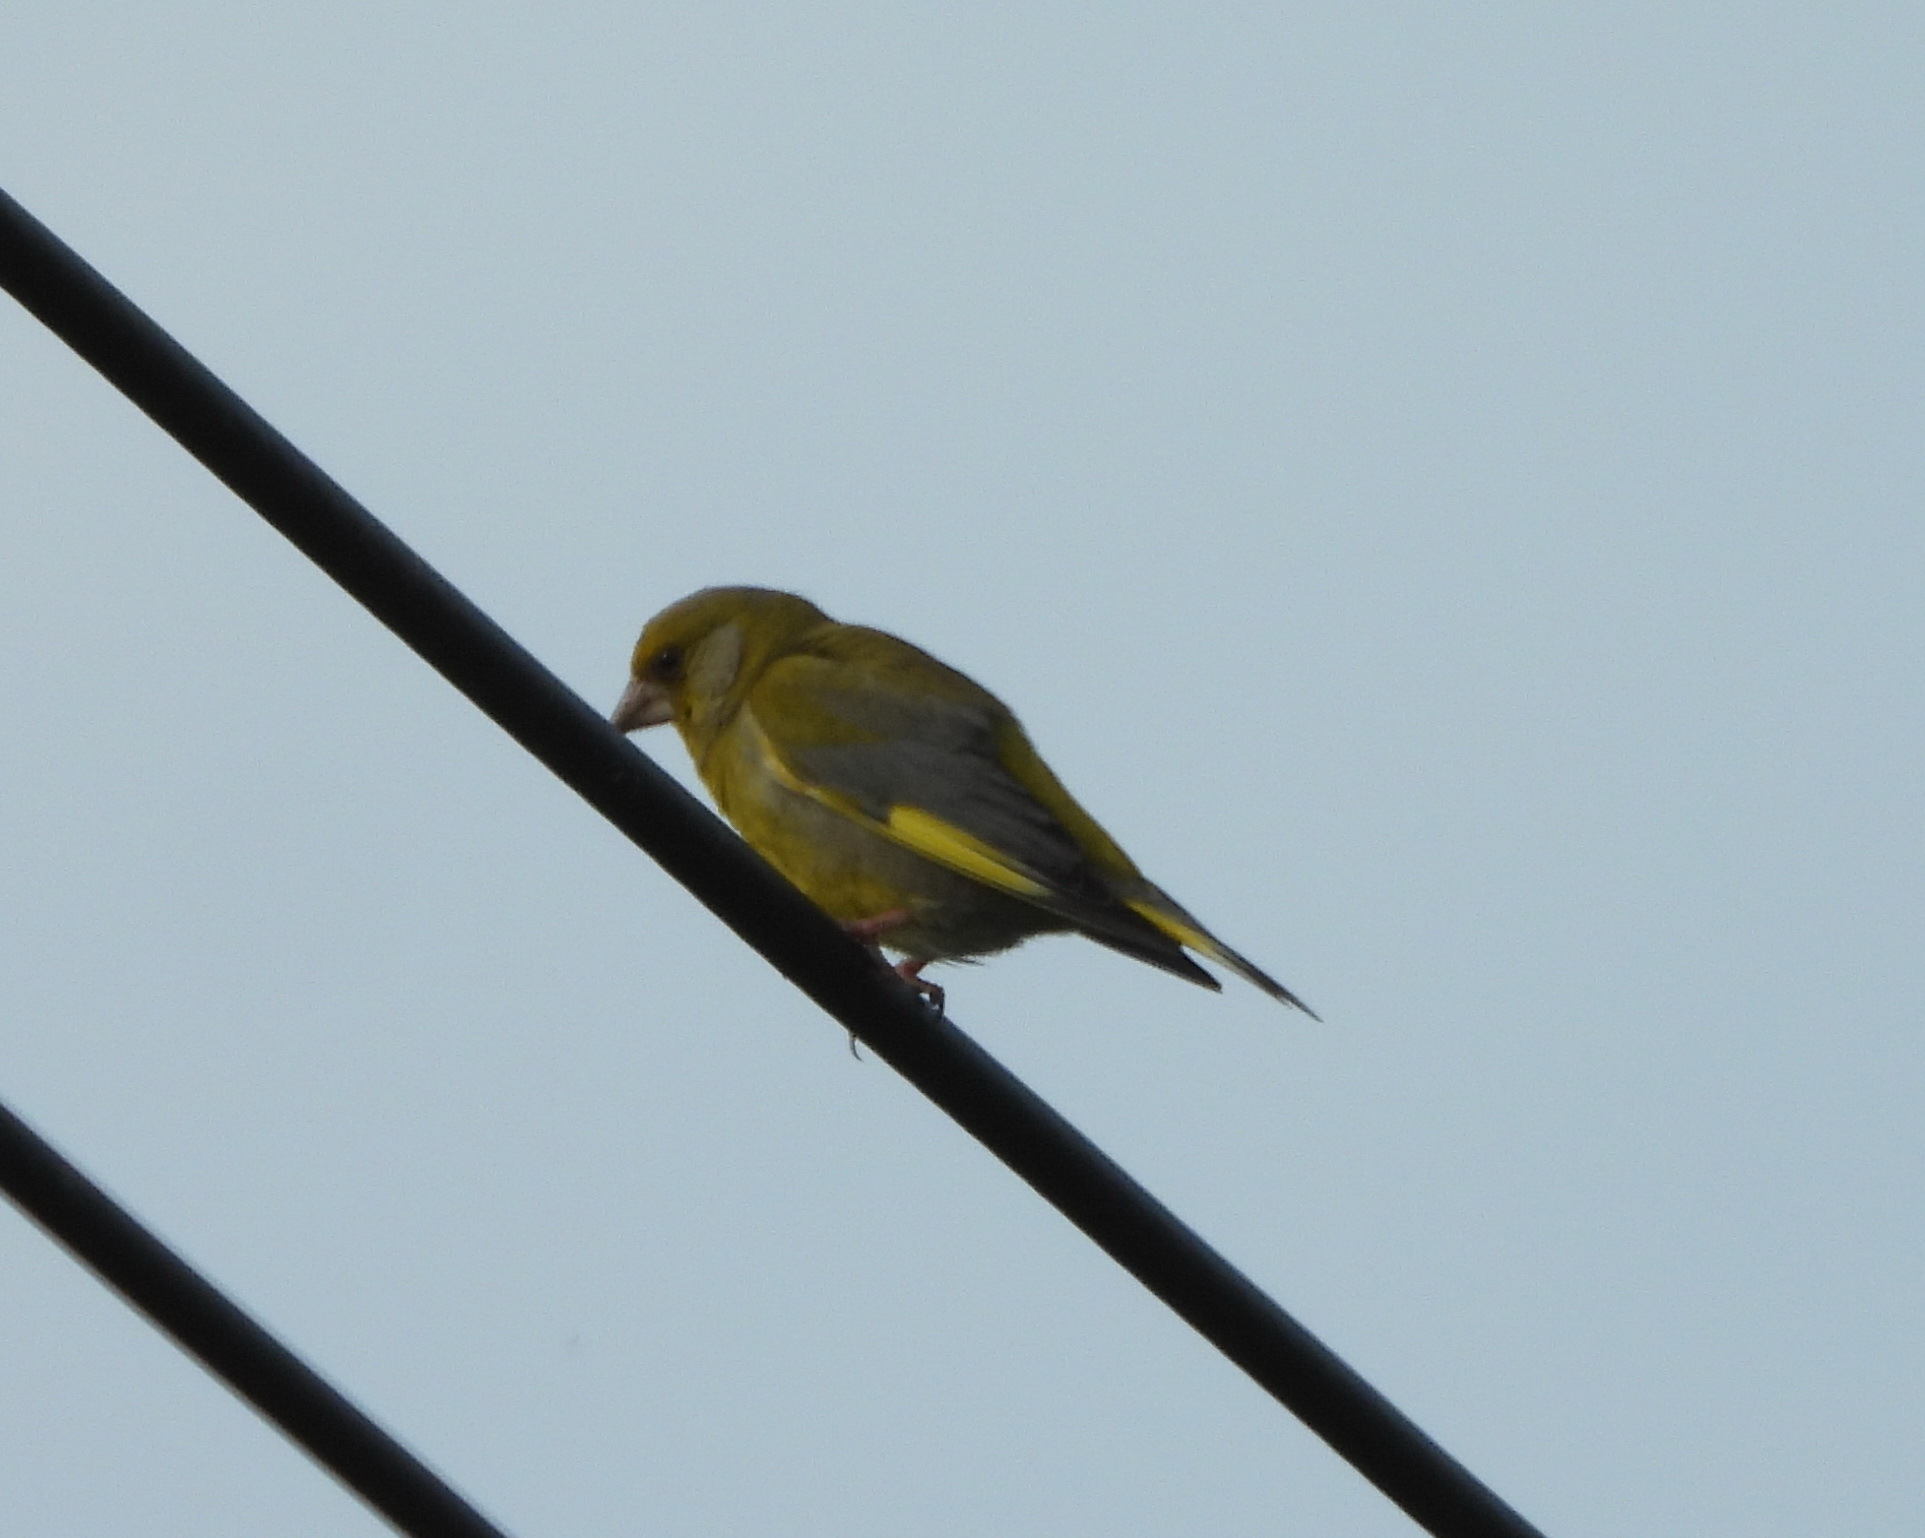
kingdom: Plantae
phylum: Tracheophyta
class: Liliopsida
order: Poales
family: Poaceae
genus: Chloris
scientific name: Chloris chloris
